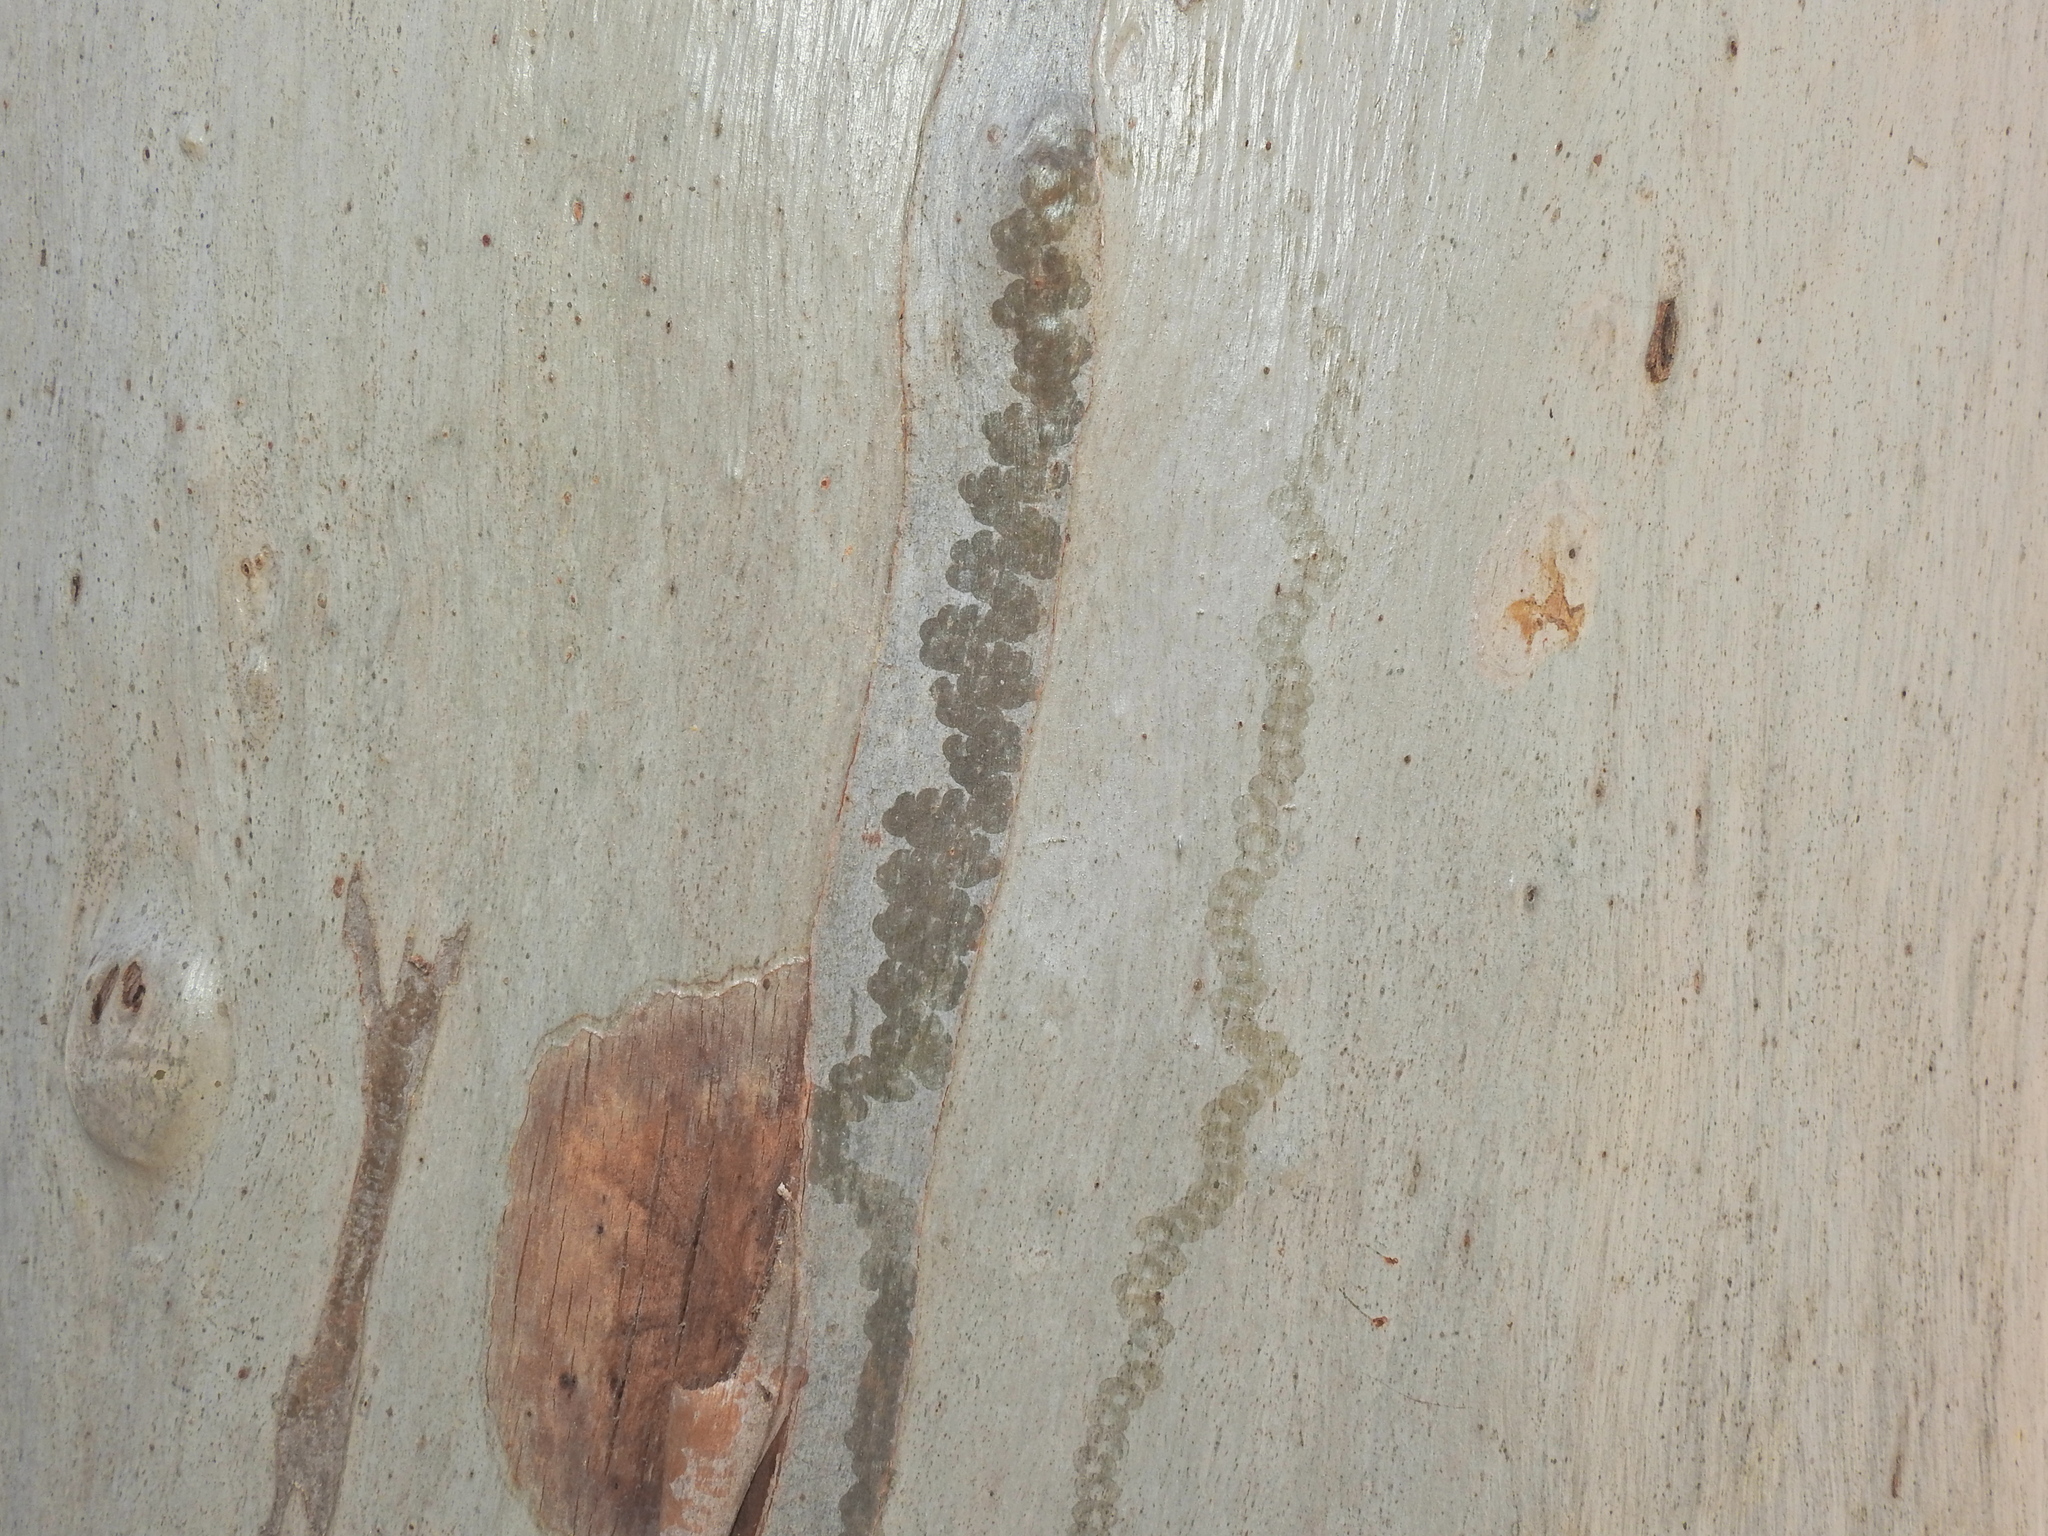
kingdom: Animalia
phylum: Mollusca
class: Gastropoda
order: Stylommatophora
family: Athoracophoridae
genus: Triboniophorus
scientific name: Triboniophorus graeffei
